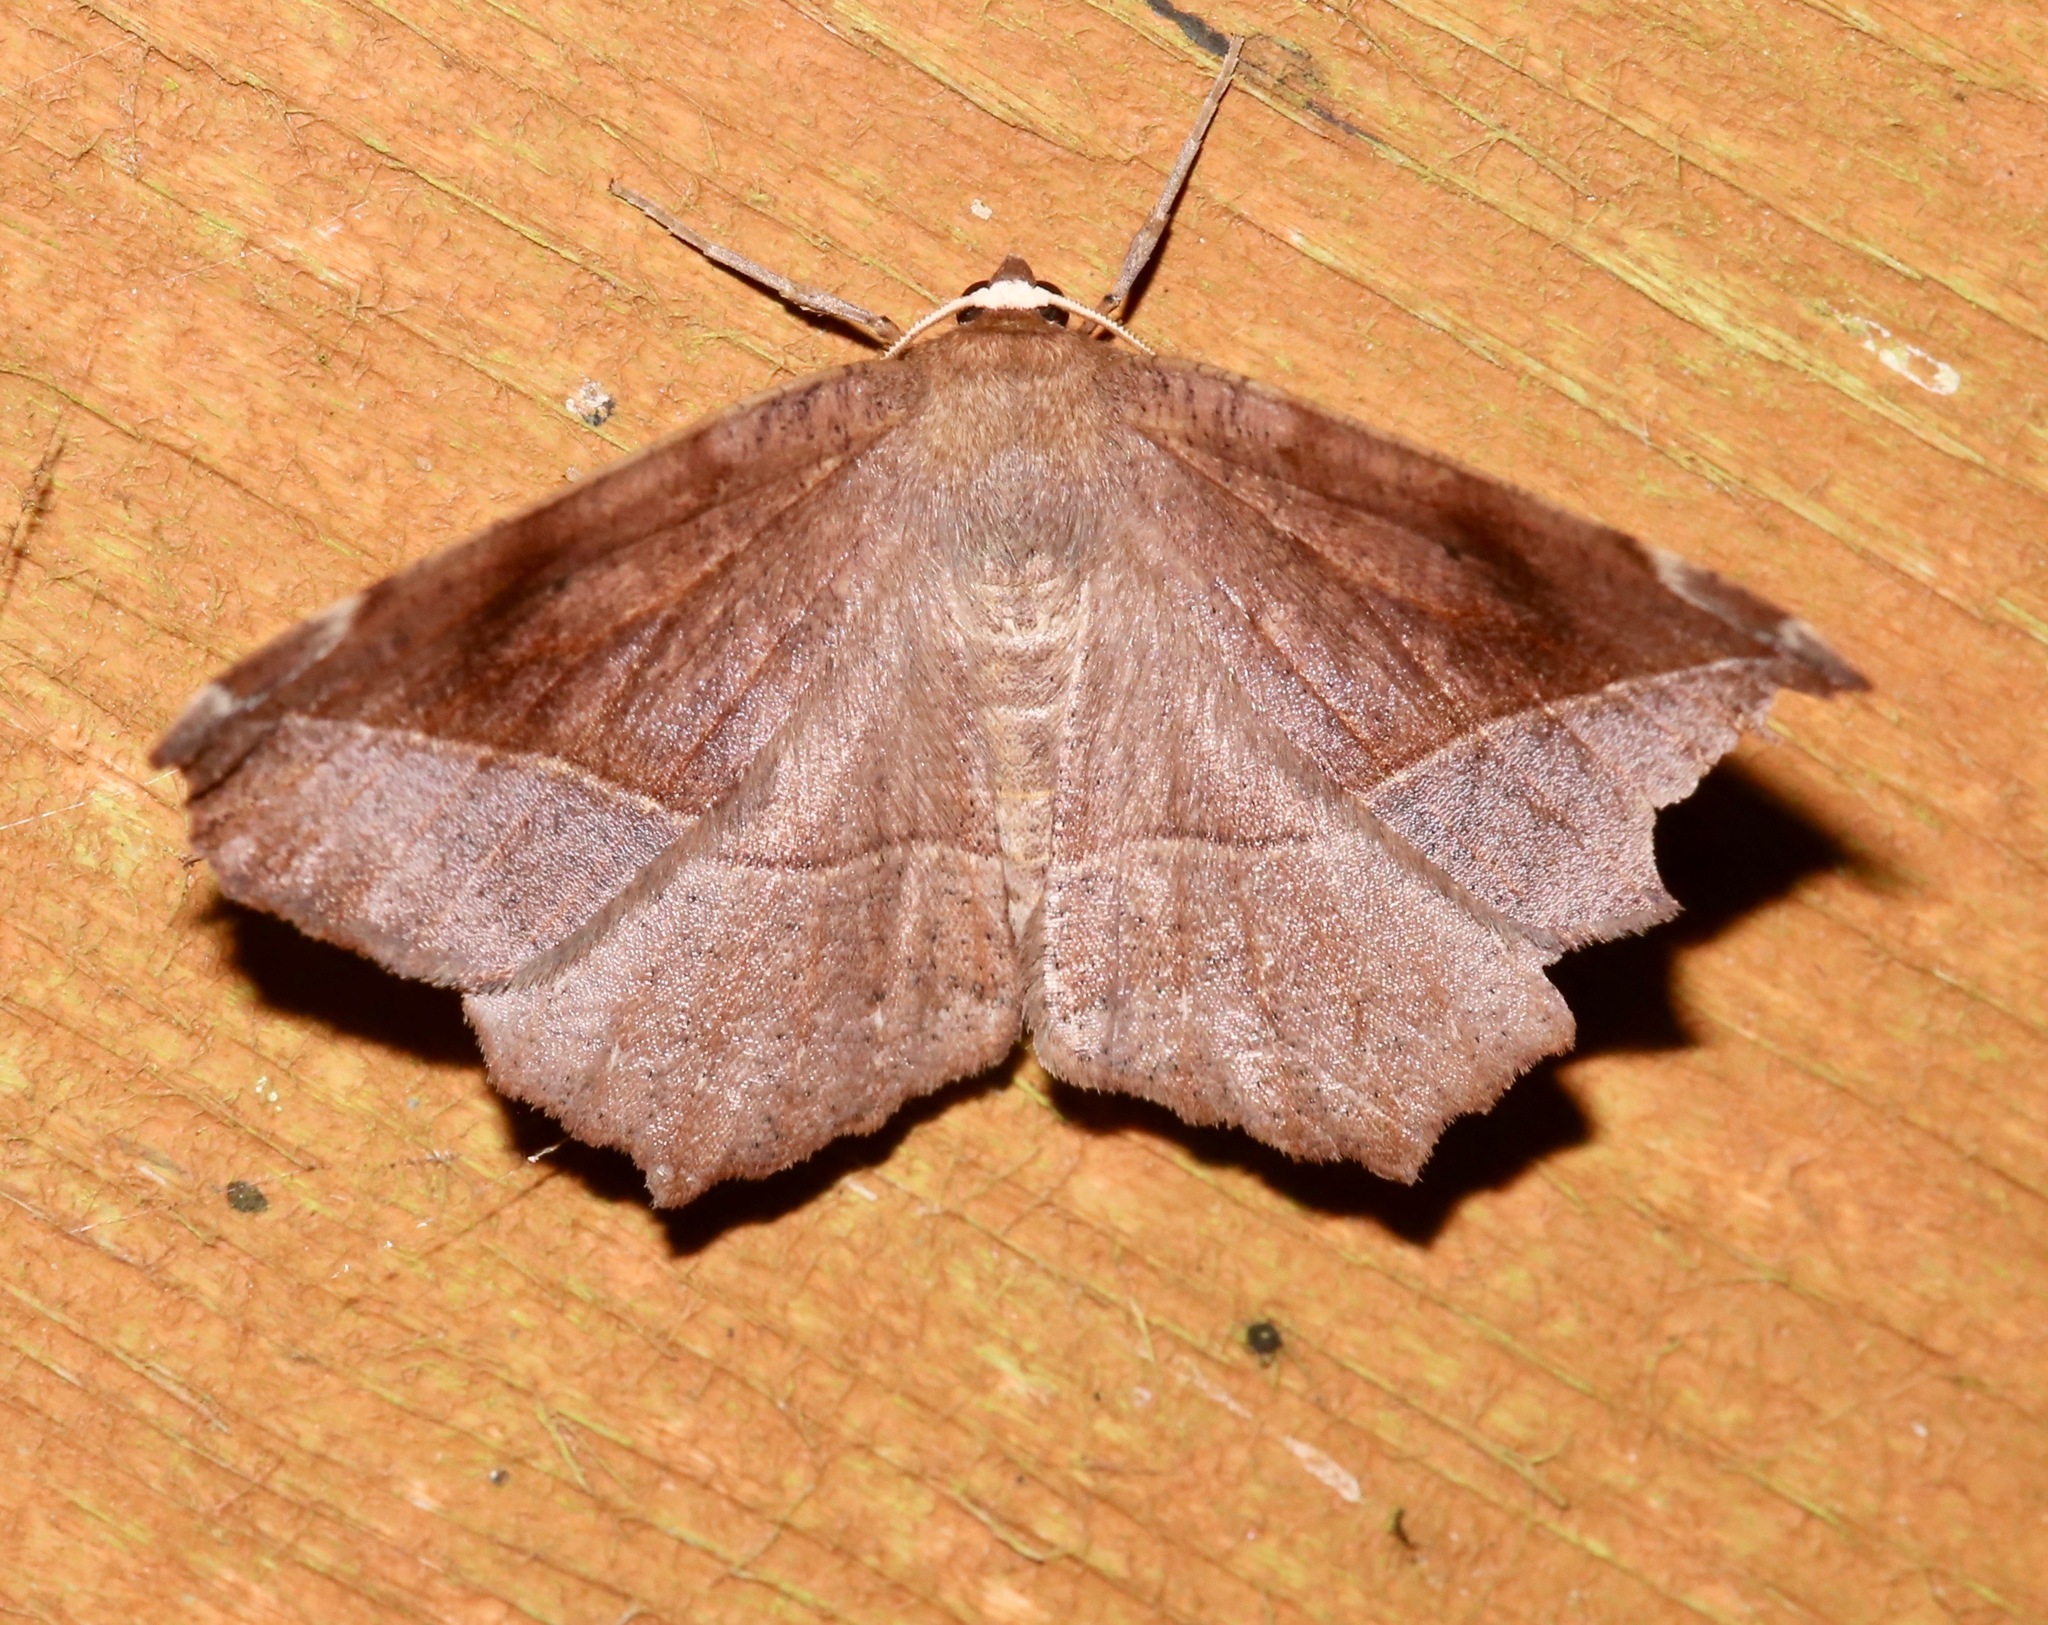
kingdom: Animalia
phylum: Arthropoda
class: Insecta
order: Lepidoptera
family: Geometridae
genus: Eutrapela
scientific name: Eutrapela clemataria
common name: Curved-toothed geometer
